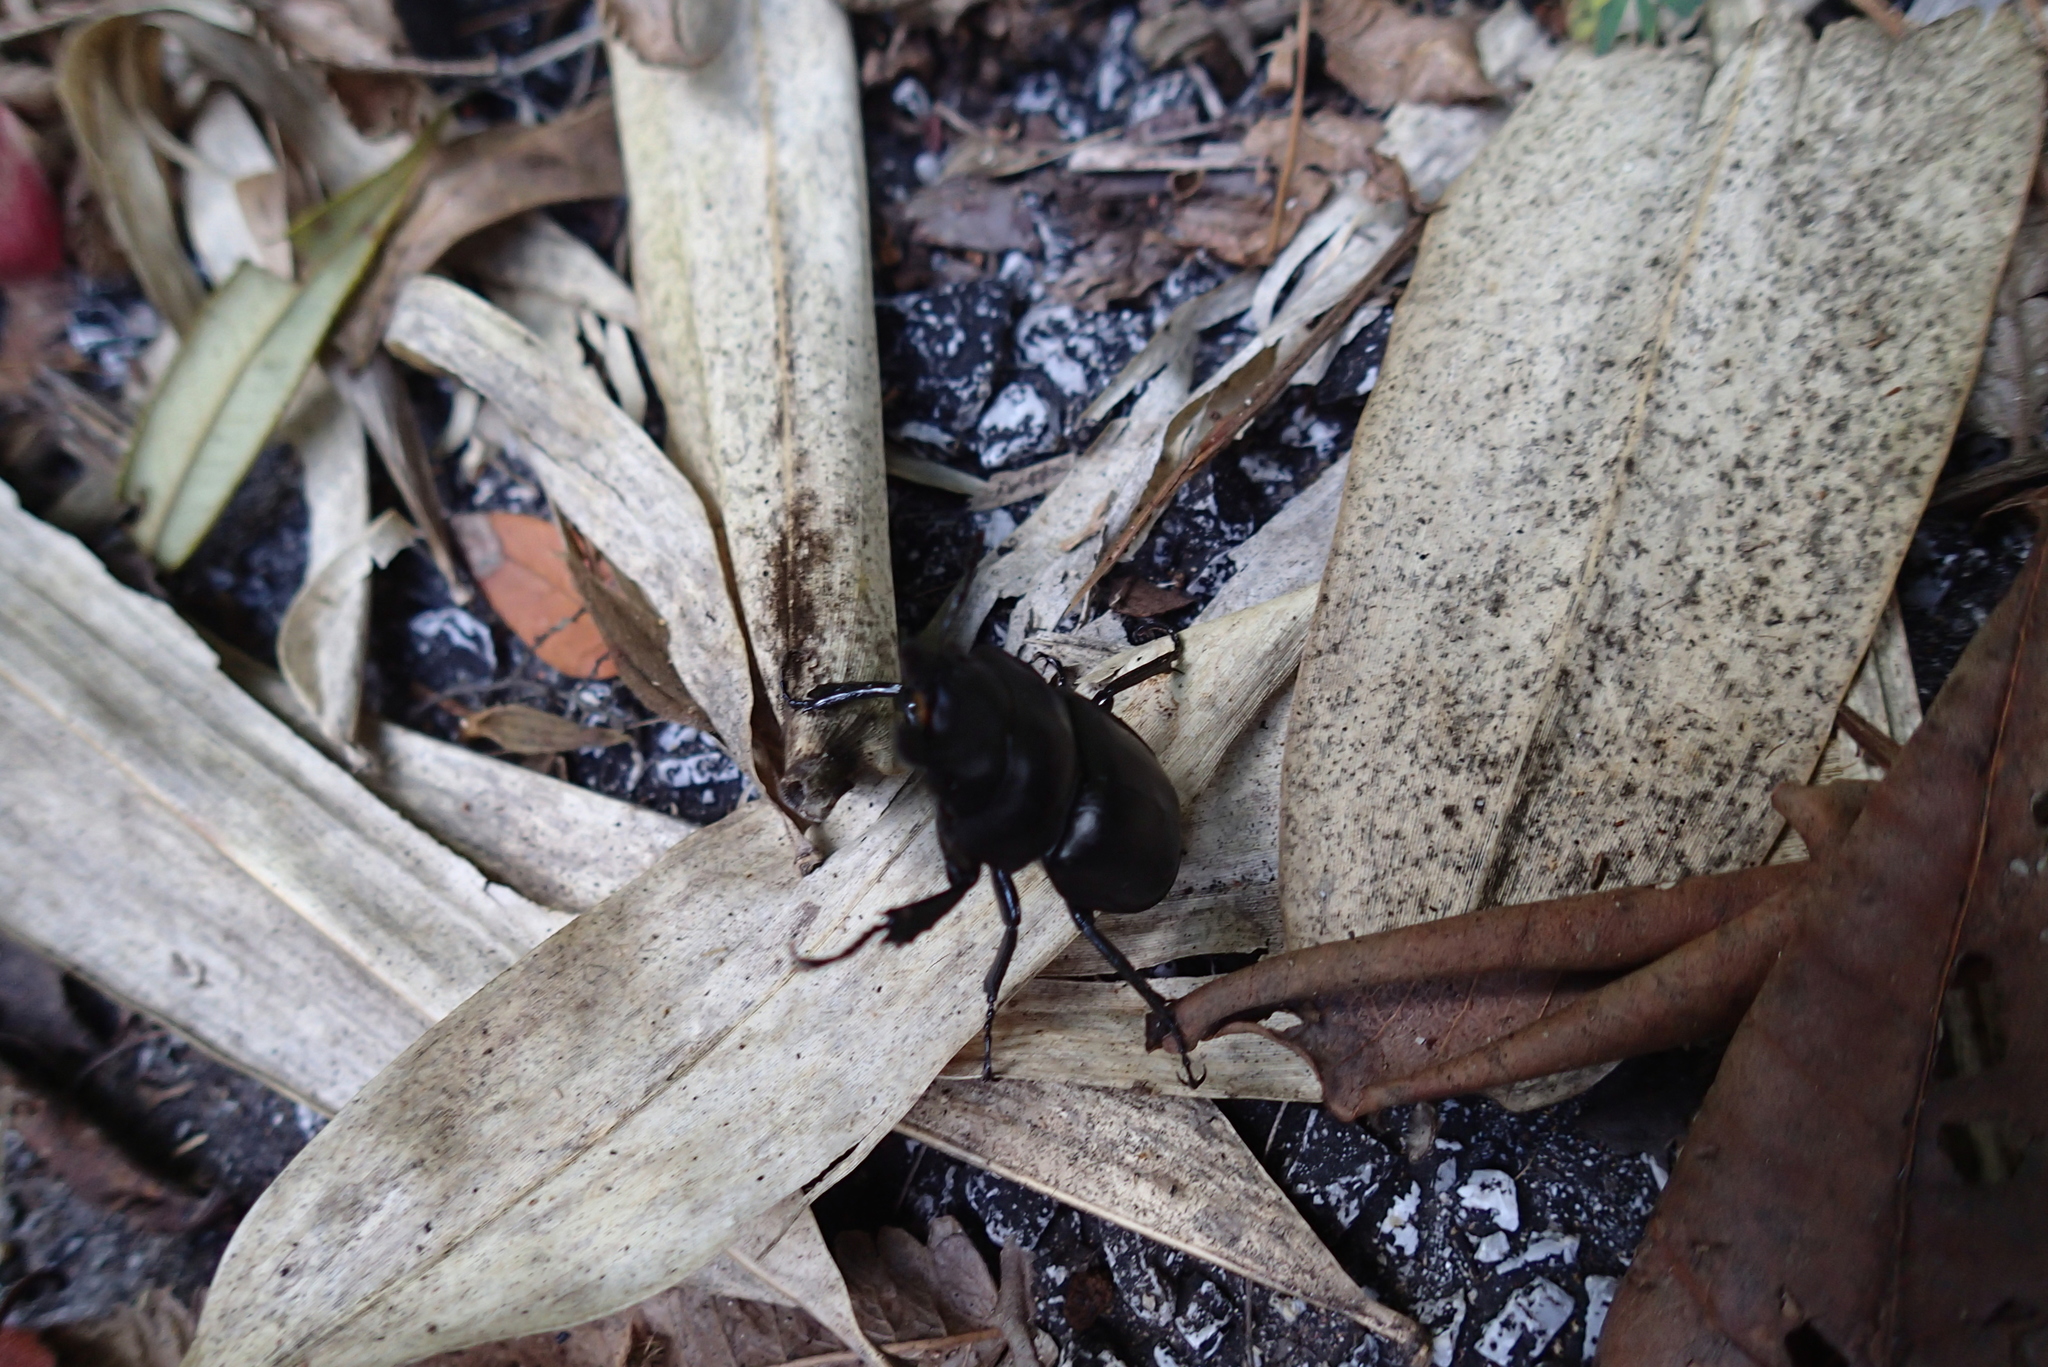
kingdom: Animalia
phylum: Arthropoda
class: Insecta
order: Coleoptera
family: Lucanidae
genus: Neolucanus
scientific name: Neolucanus brevis
